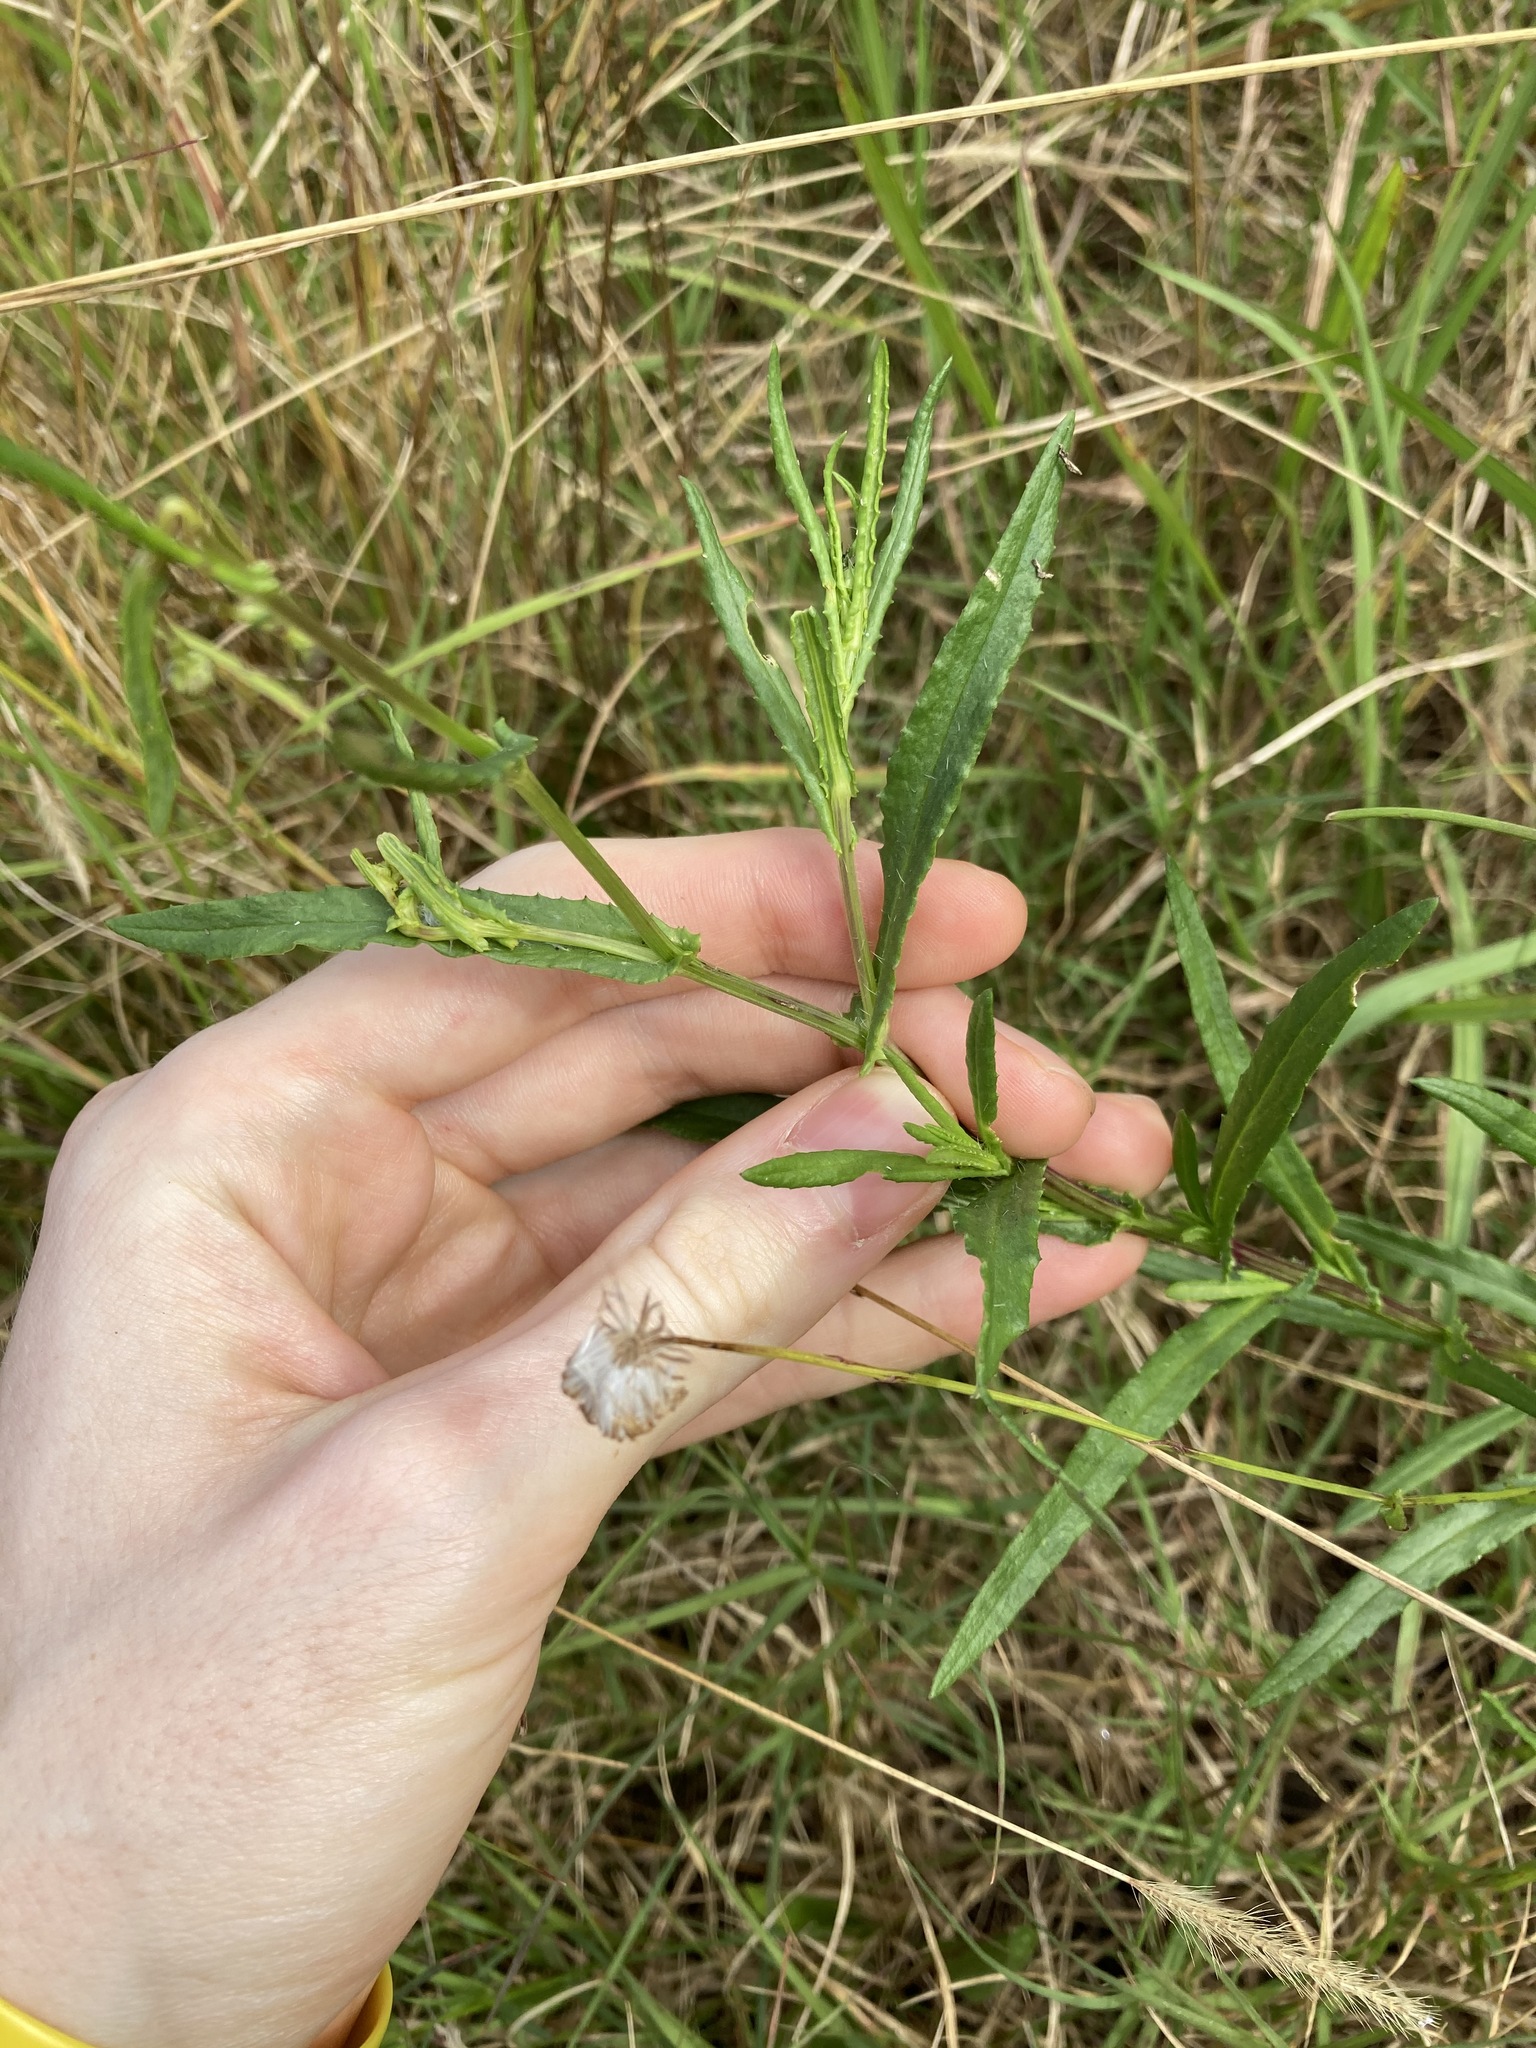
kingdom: Plantae
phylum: Tracheophyta
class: Magnoliopsida
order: Asterales
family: Asteraceae
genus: Senecio
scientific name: Senecio madagascariensis
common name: Madagascar ragwort
